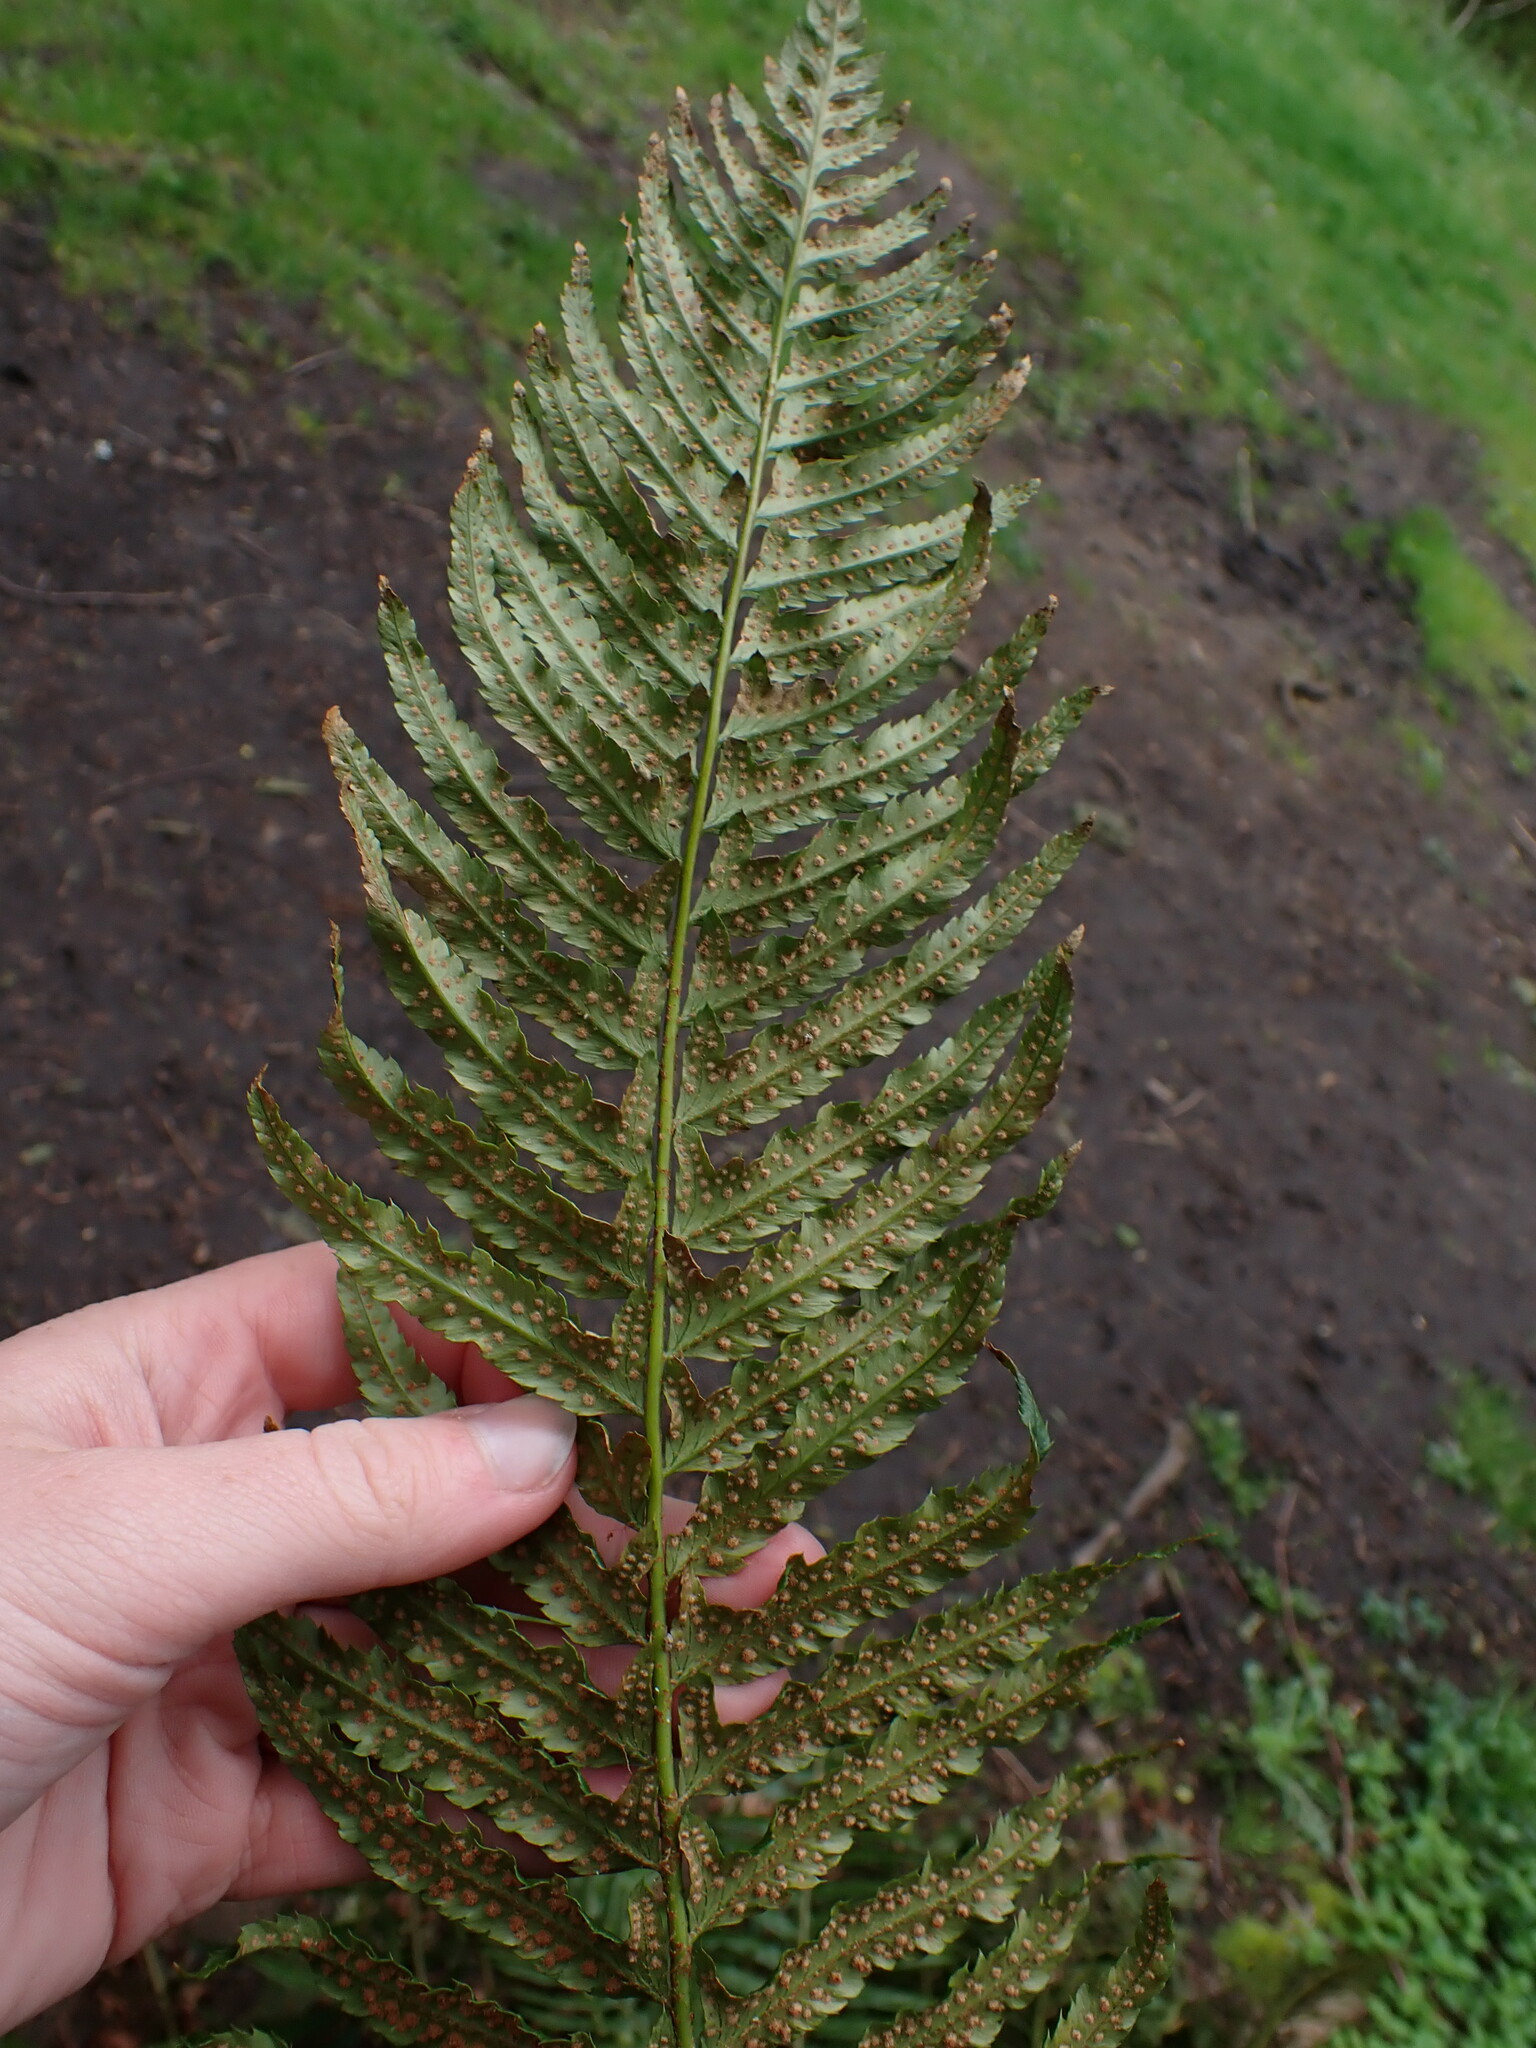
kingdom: Plantae
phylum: Tracheophyta
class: Polypodiopsida
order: Polypodiales
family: Dryopteridaceae
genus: Polystichum
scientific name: Polystichum munitum
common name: Western sword-fern
